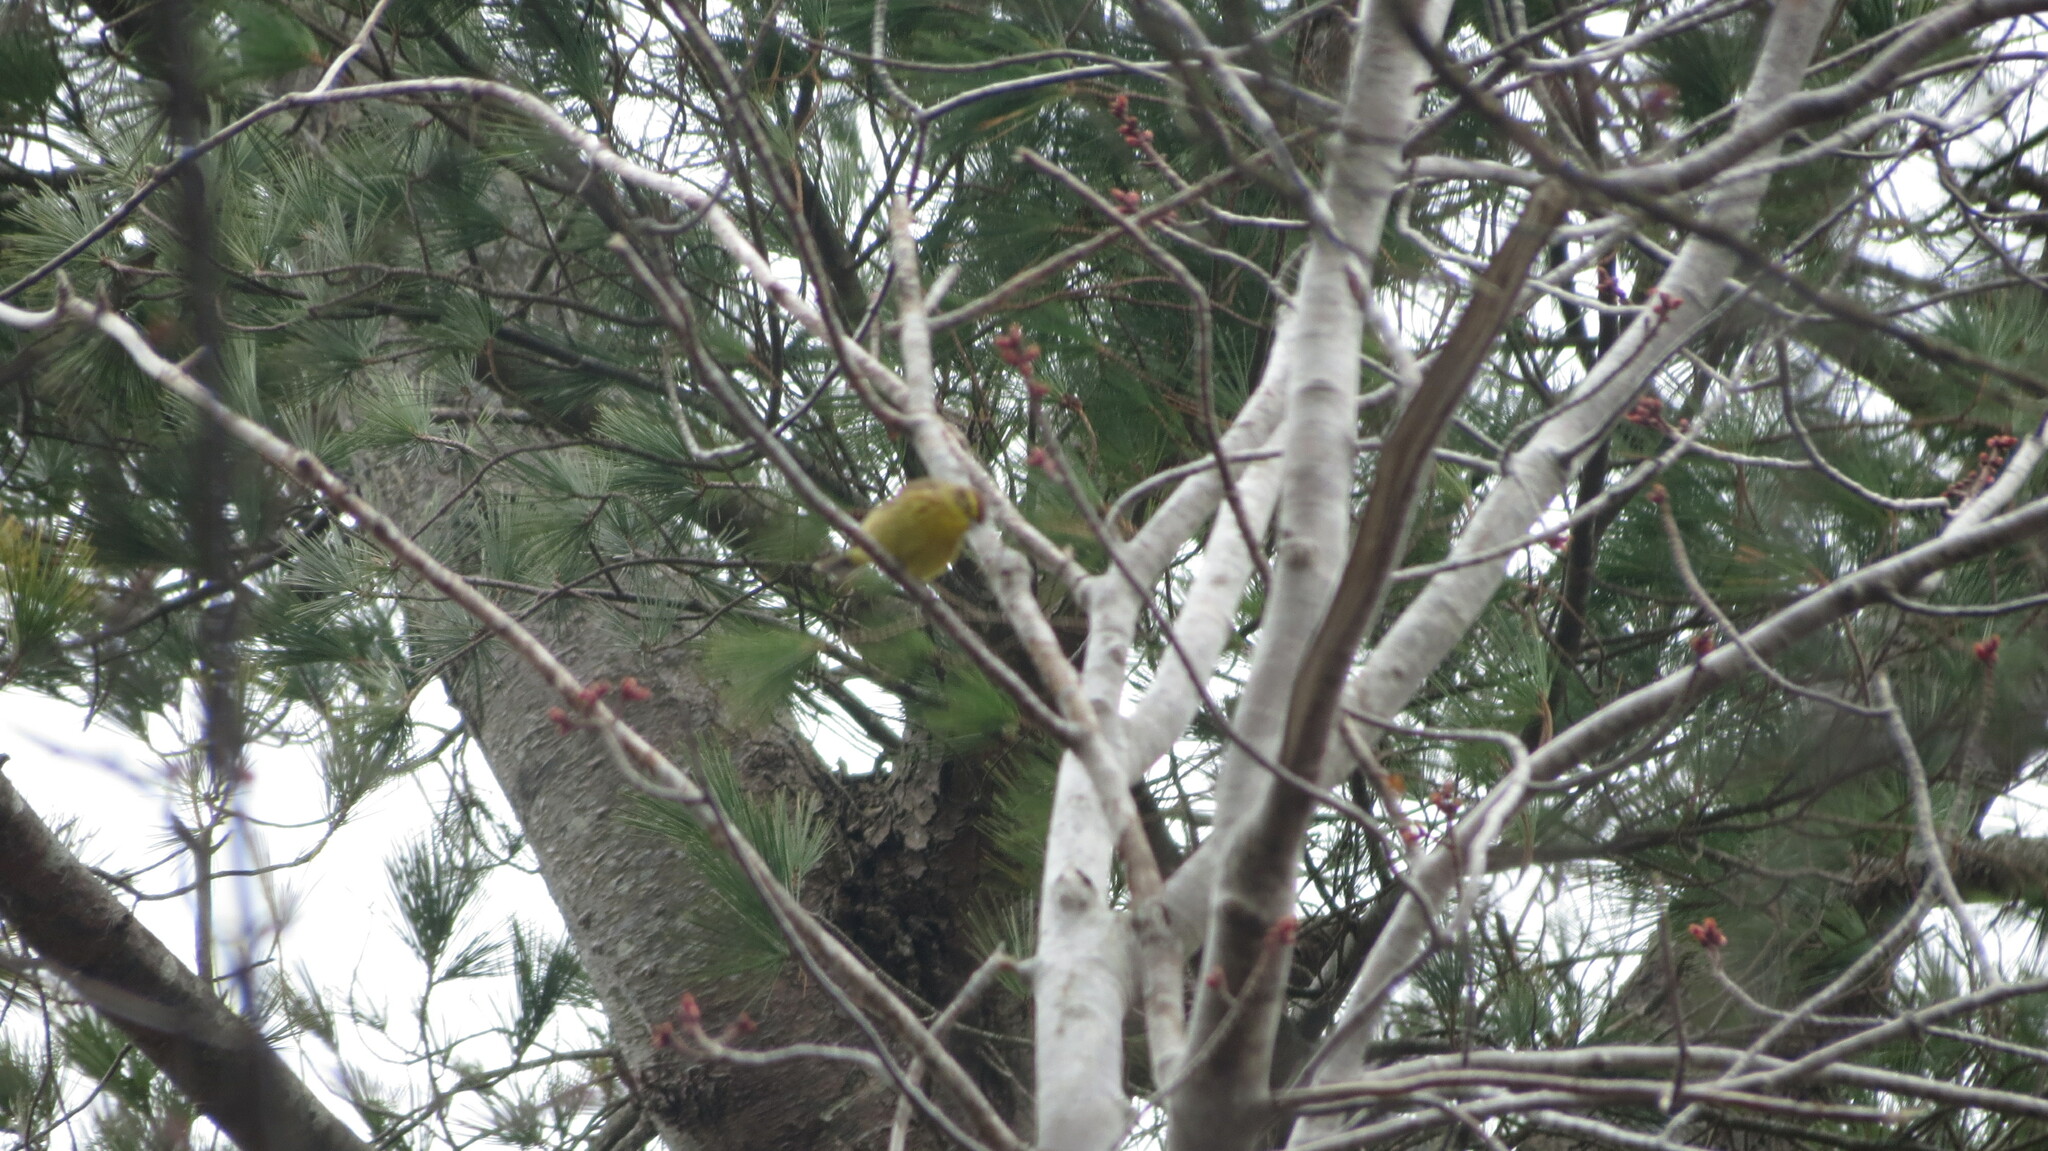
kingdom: Animalia
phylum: Chordata
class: Aves
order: Passeriformes
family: Parulidae
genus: Setophaga
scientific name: Setophaga palmarum
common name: Palm warbler
